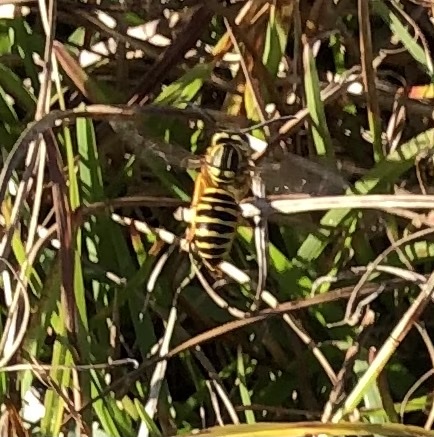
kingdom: Animalia
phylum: Arthropoda
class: Insecta
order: Hymenoptera
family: Vespidae
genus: Vespula
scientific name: Vespula squamosa
